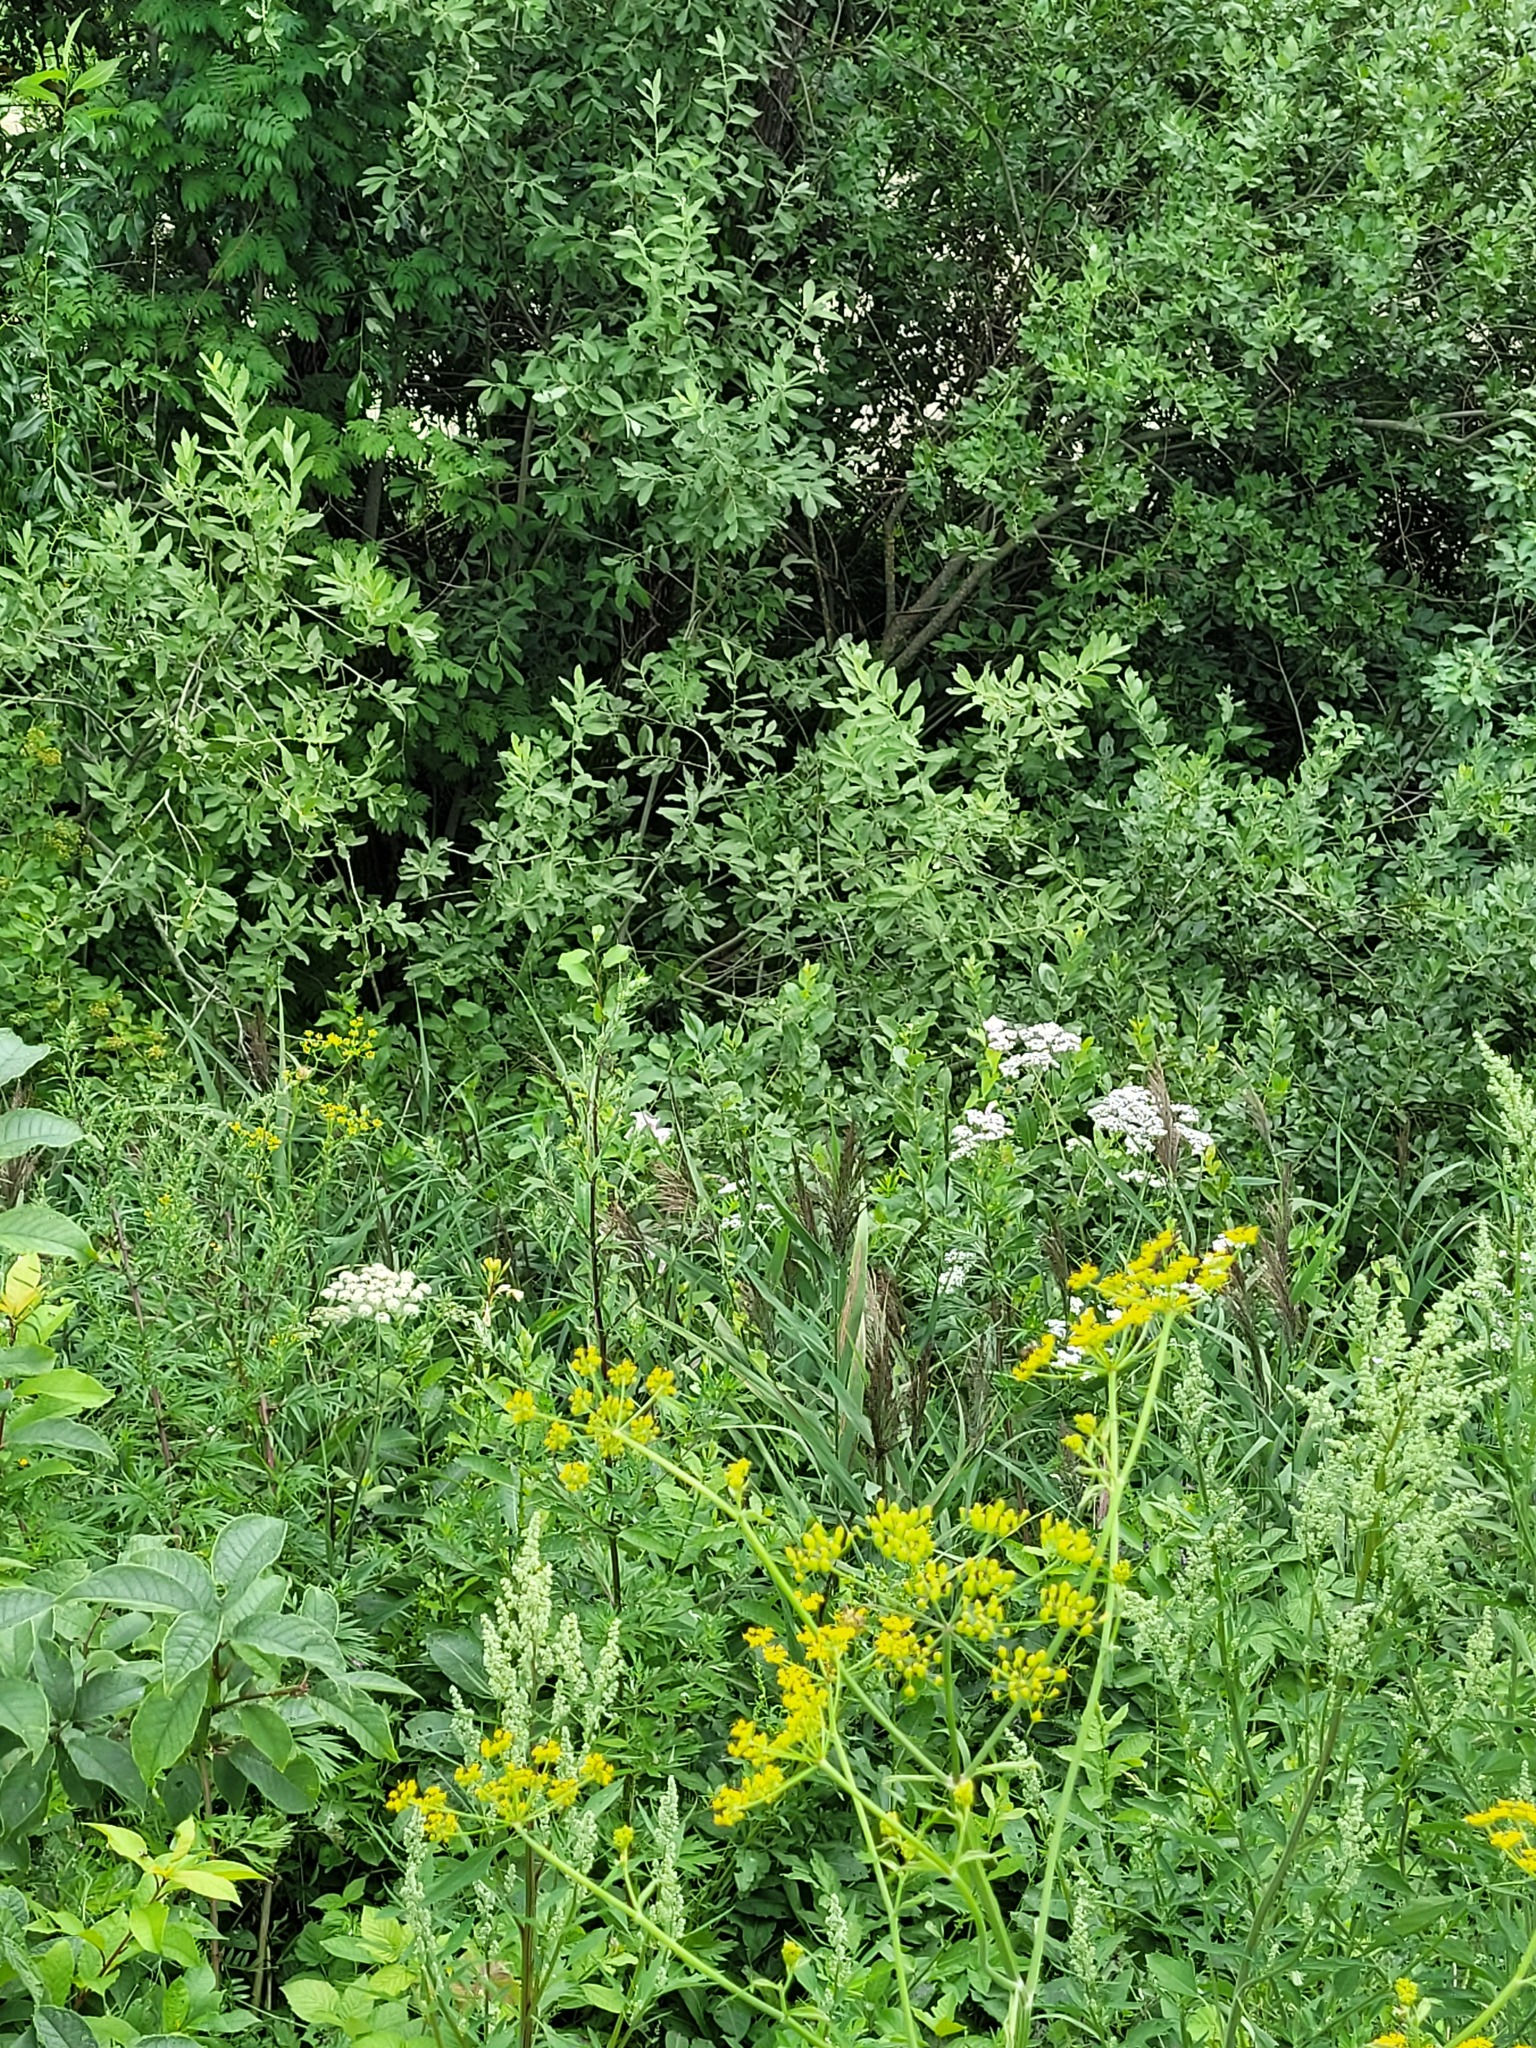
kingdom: Plantae
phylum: Tracheophyta
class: Liliopsida
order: Poales
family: Poaceae
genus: Phragmites
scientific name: Phragmites australis
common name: Common reed
